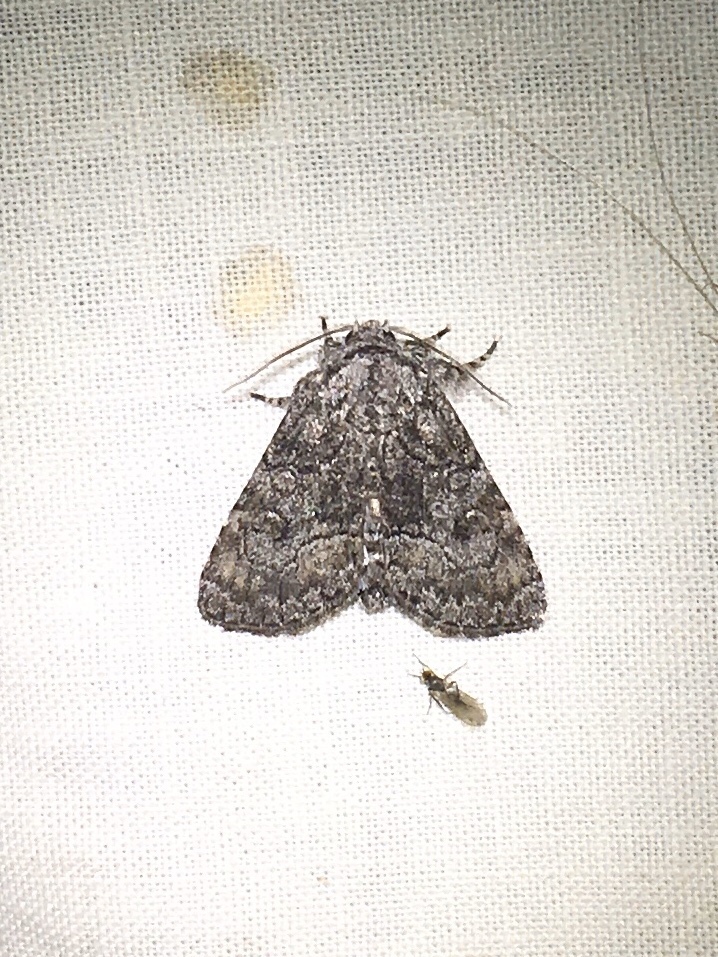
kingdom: Animalia
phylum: Arthropoda
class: Insecta
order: Lepidoptera
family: Noctuidae
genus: Raphia
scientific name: Raphia frater
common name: Brother
